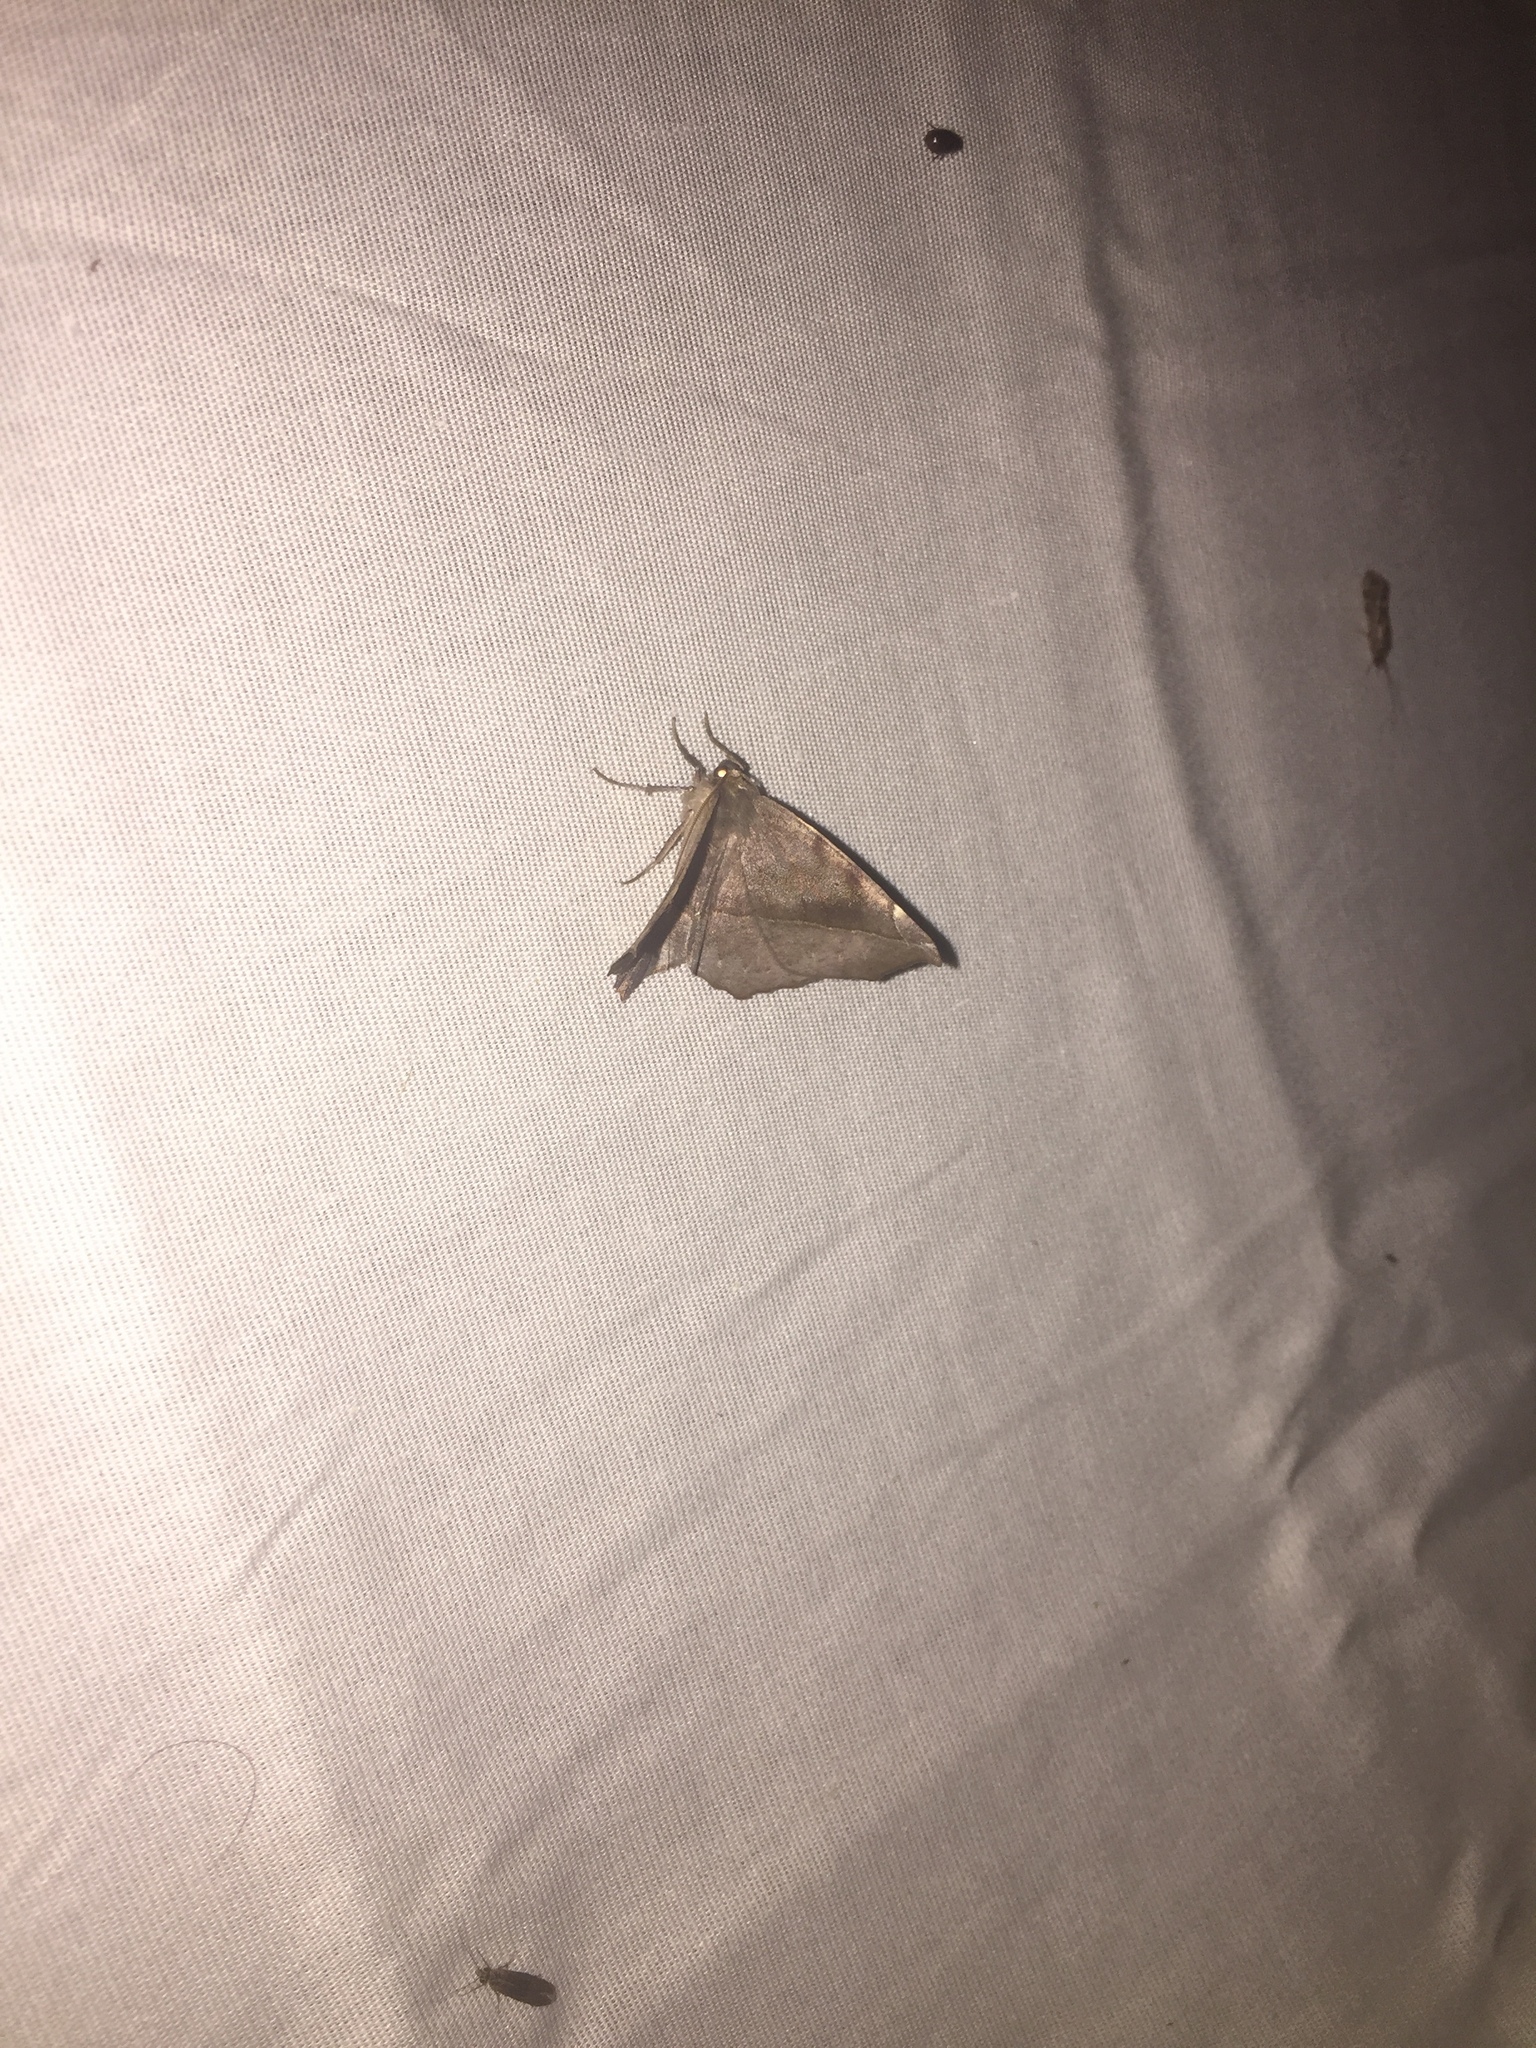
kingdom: Animalia
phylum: Arthropoda
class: Insecta
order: Lepidoptera
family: Geometridae
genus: Eutrapela
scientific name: Eutrapela clemataria
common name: Curved-toothed geometer
